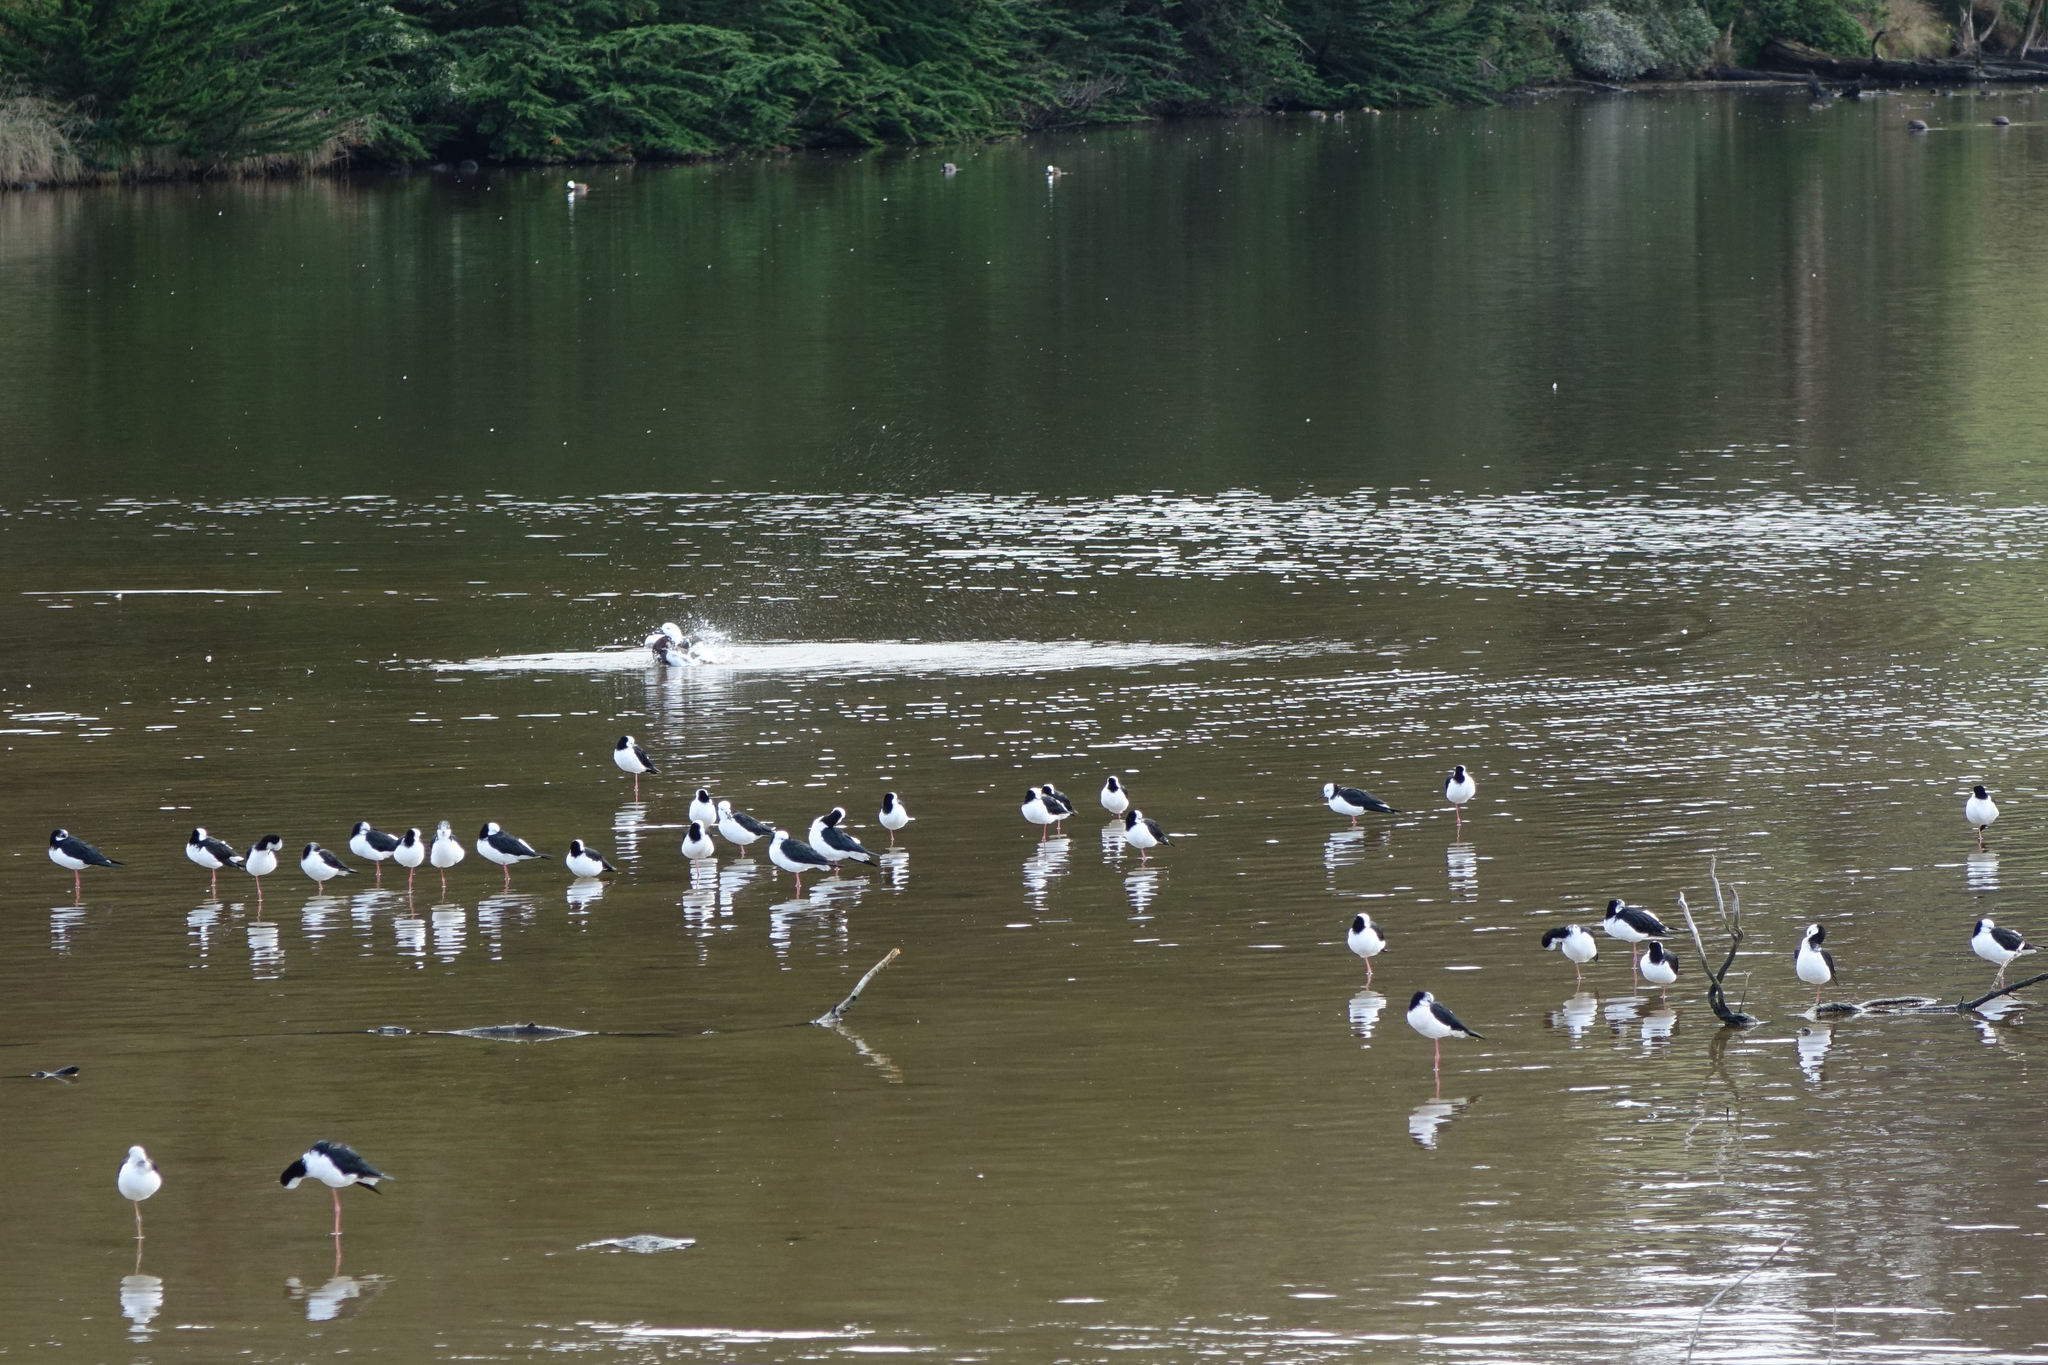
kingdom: Animalia
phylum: Chordata
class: Aves
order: Charadriiformes
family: Recurvirostridae
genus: Himantopus
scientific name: Himantopus leucocephalus
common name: White-headed stilt
